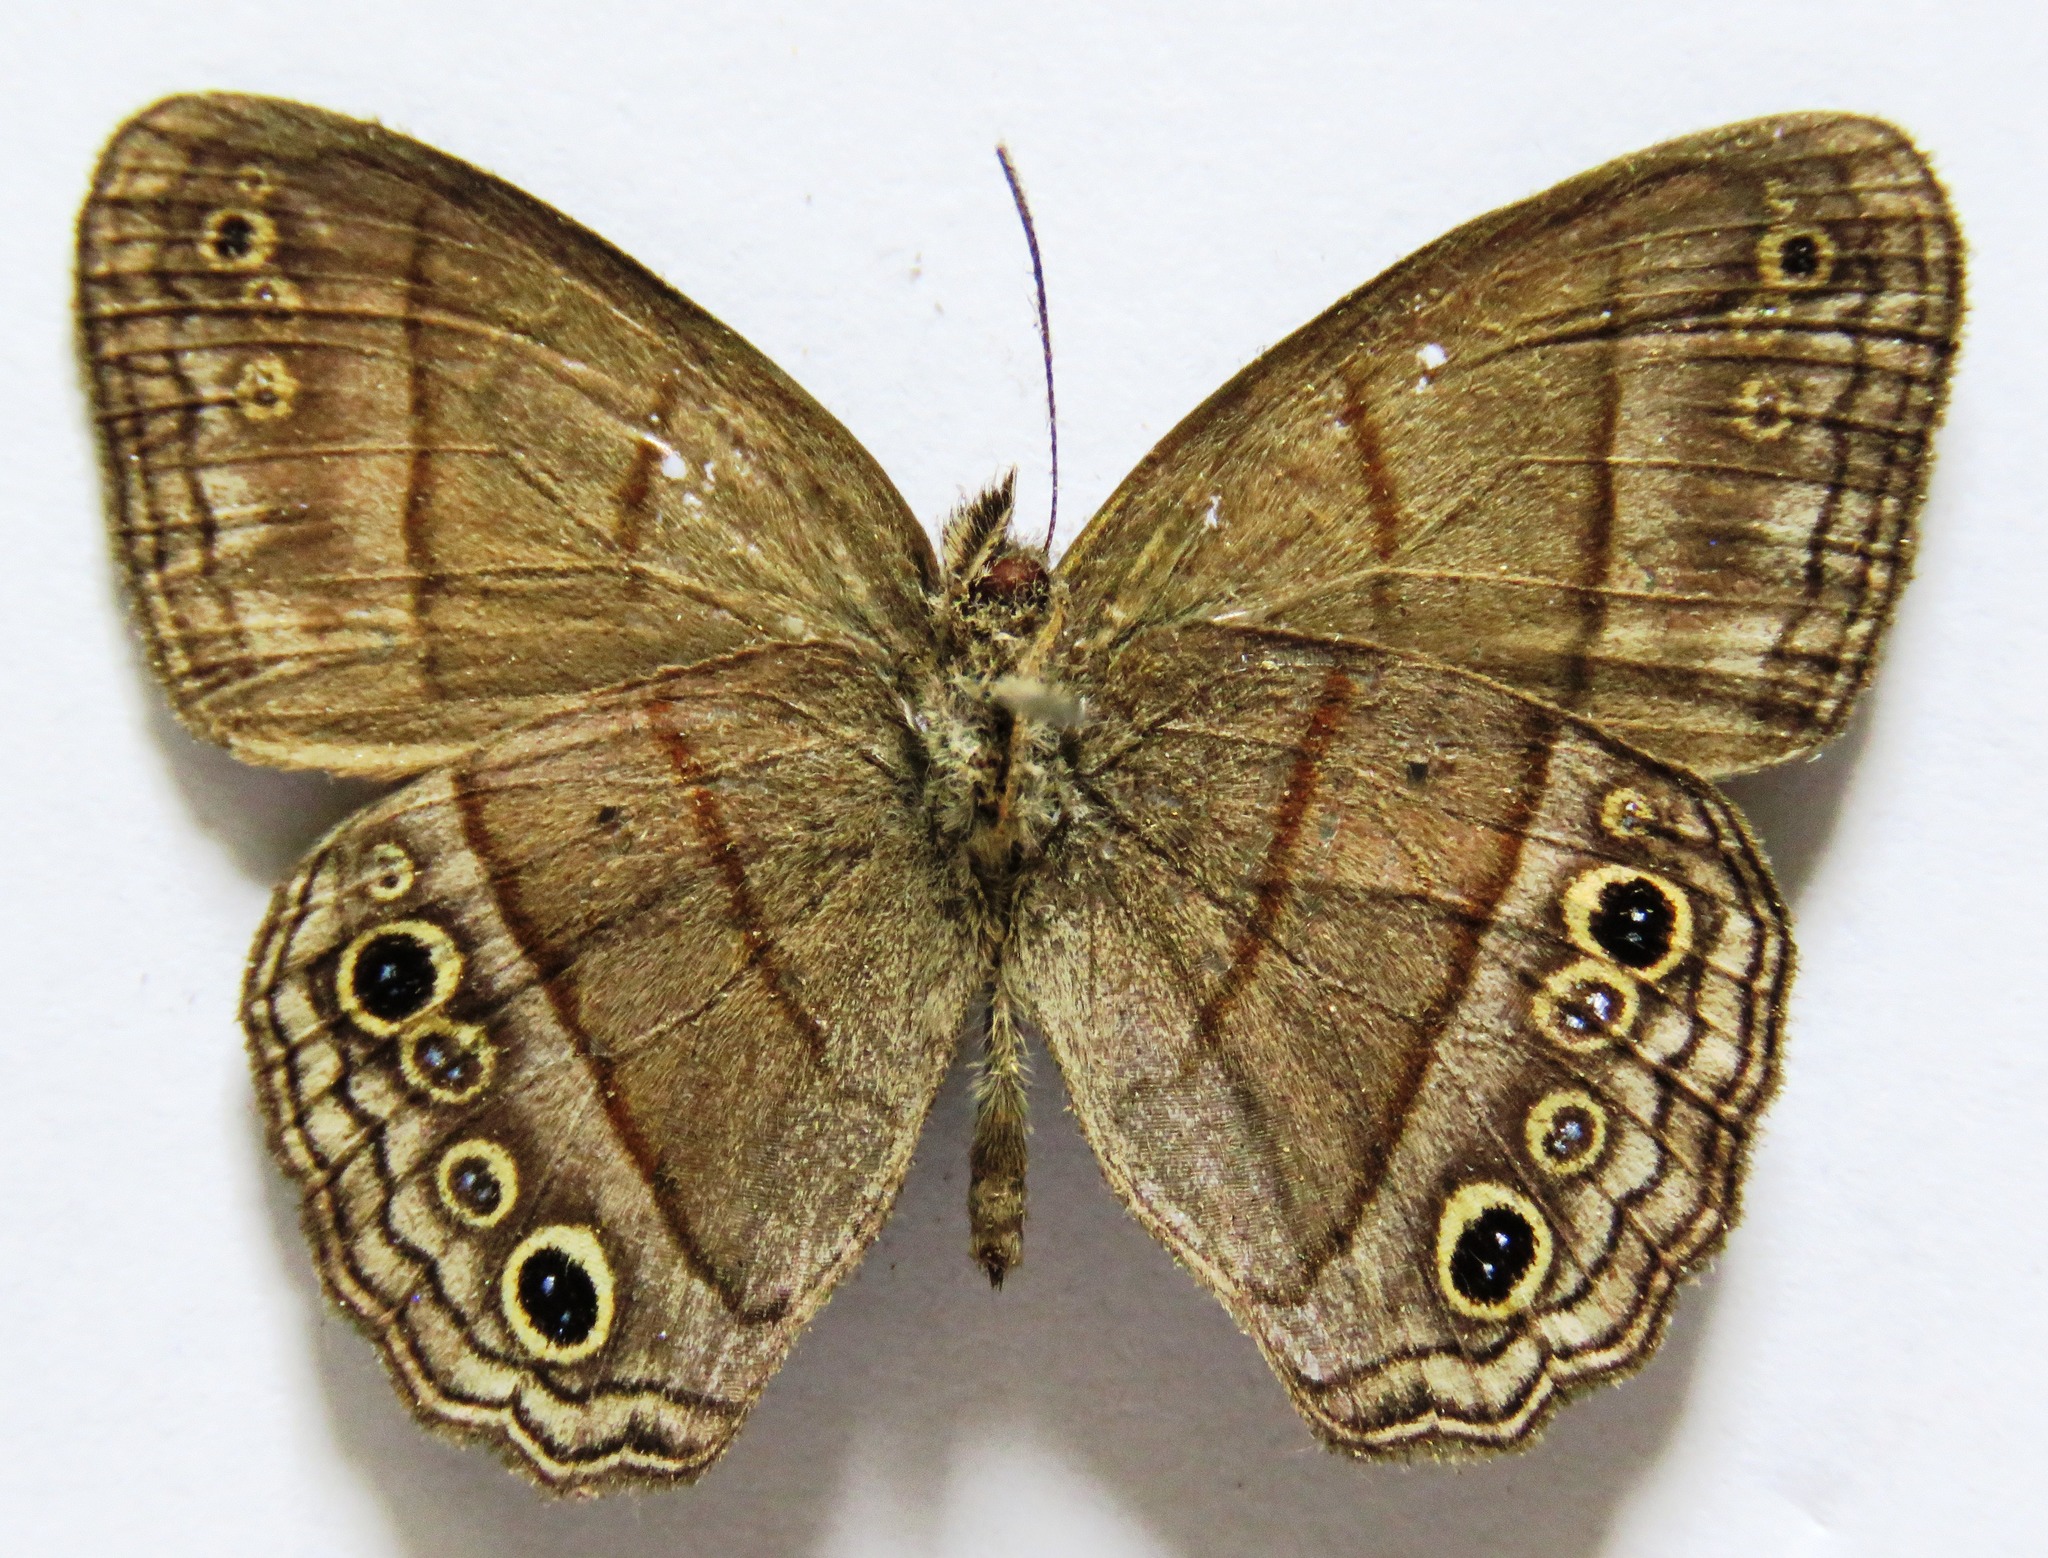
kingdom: Animalia
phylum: Arthropoda
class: Insecta
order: Lepidoptera
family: Nymphalidae
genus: Vareuptychia
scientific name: Vareuptychia similis
